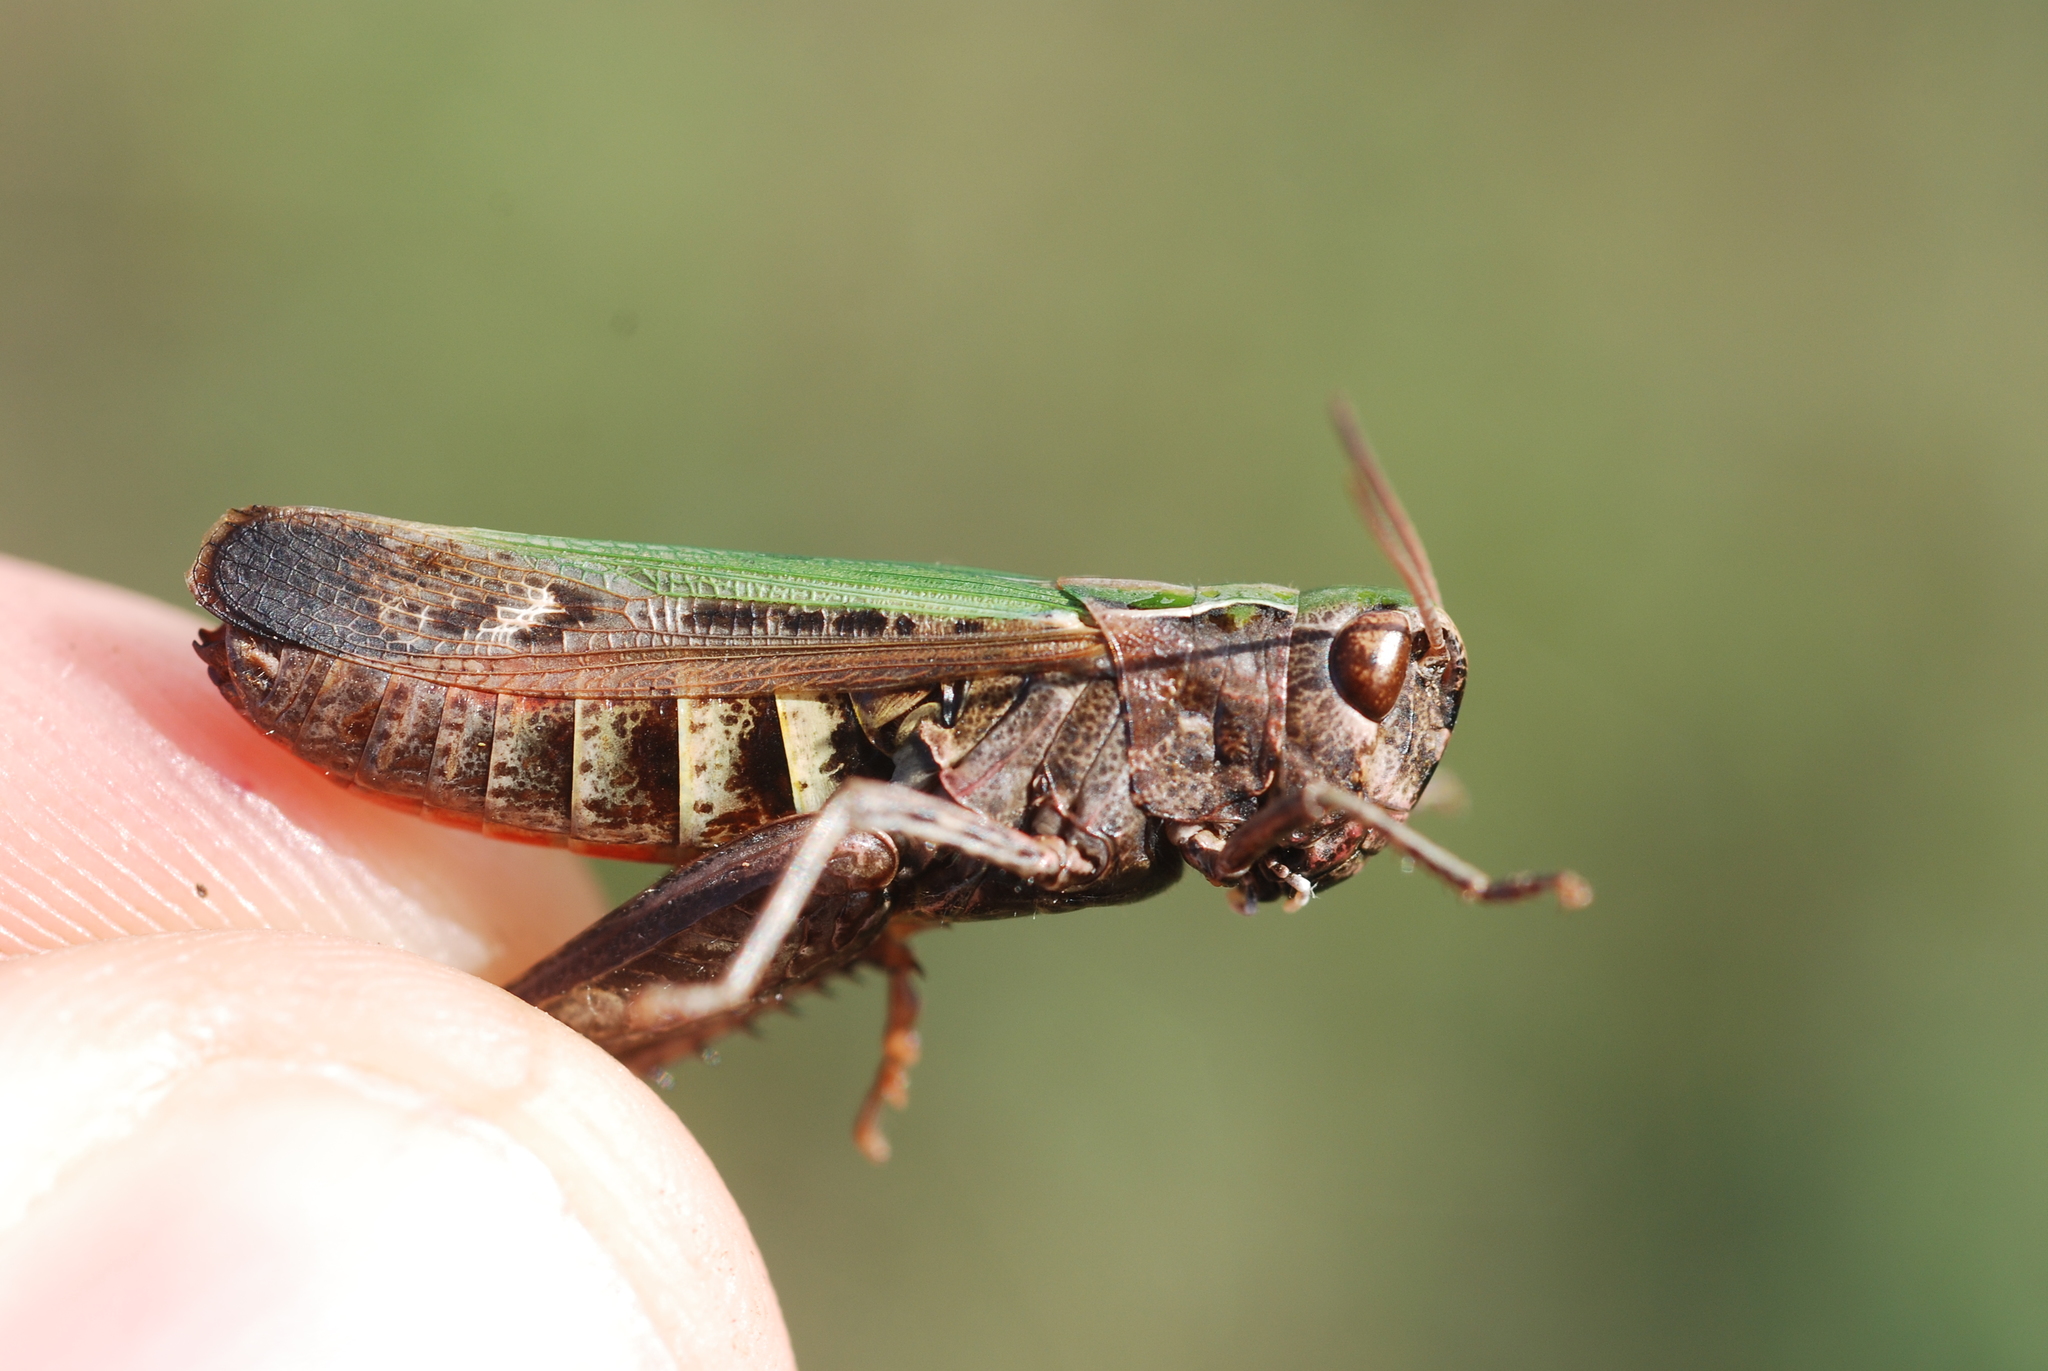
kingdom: Animalia
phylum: Arthropoda
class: Insecta
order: Orthoptera
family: Acrididae
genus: Omocestus
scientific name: Omocestus rufipes
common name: Woodland grasshopper
